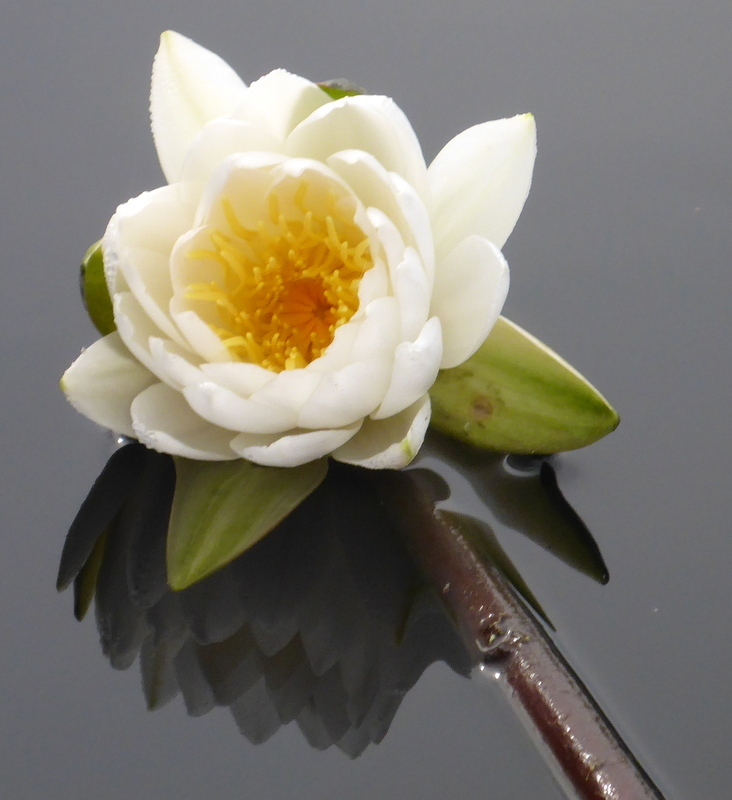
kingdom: Plantae
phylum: Tracheophyta
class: Magnoliopsida
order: Nymphaeales
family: Nymphaeaceae
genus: Nymphaea
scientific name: Nymphaea odorata
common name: Fragrant water-lily
